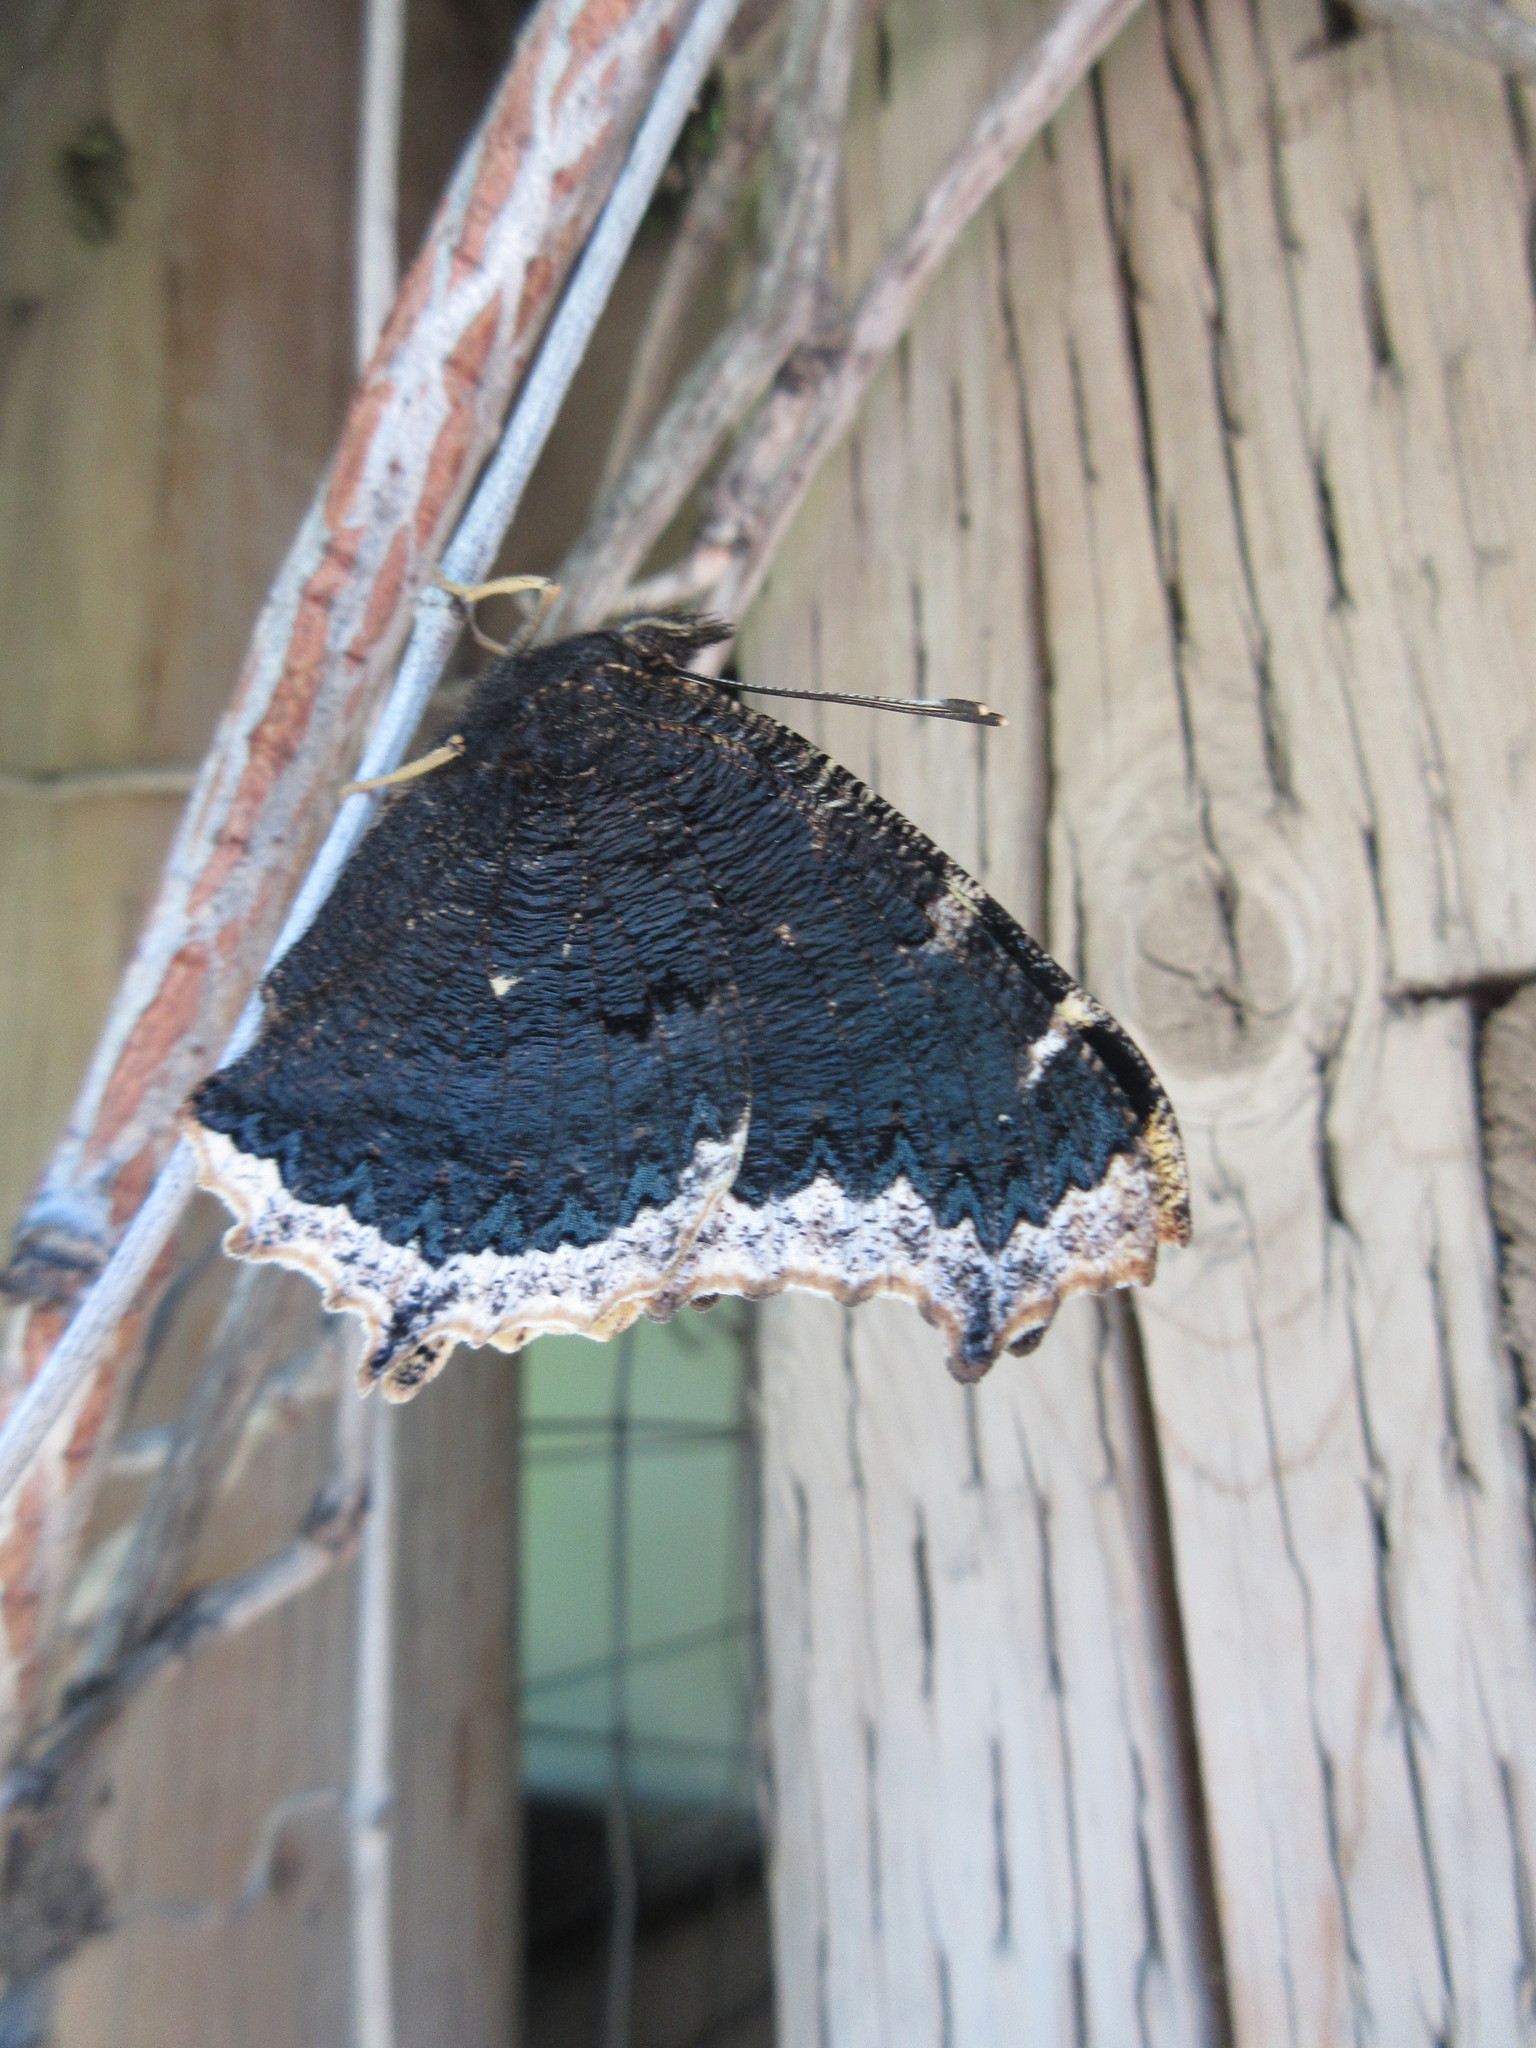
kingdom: Animalia
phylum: Arthropoda
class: Insecta
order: Lepidoptera
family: Nymphalidae
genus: Nymphalis
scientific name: Nymphalis antiopa
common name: Camberwell beauty
